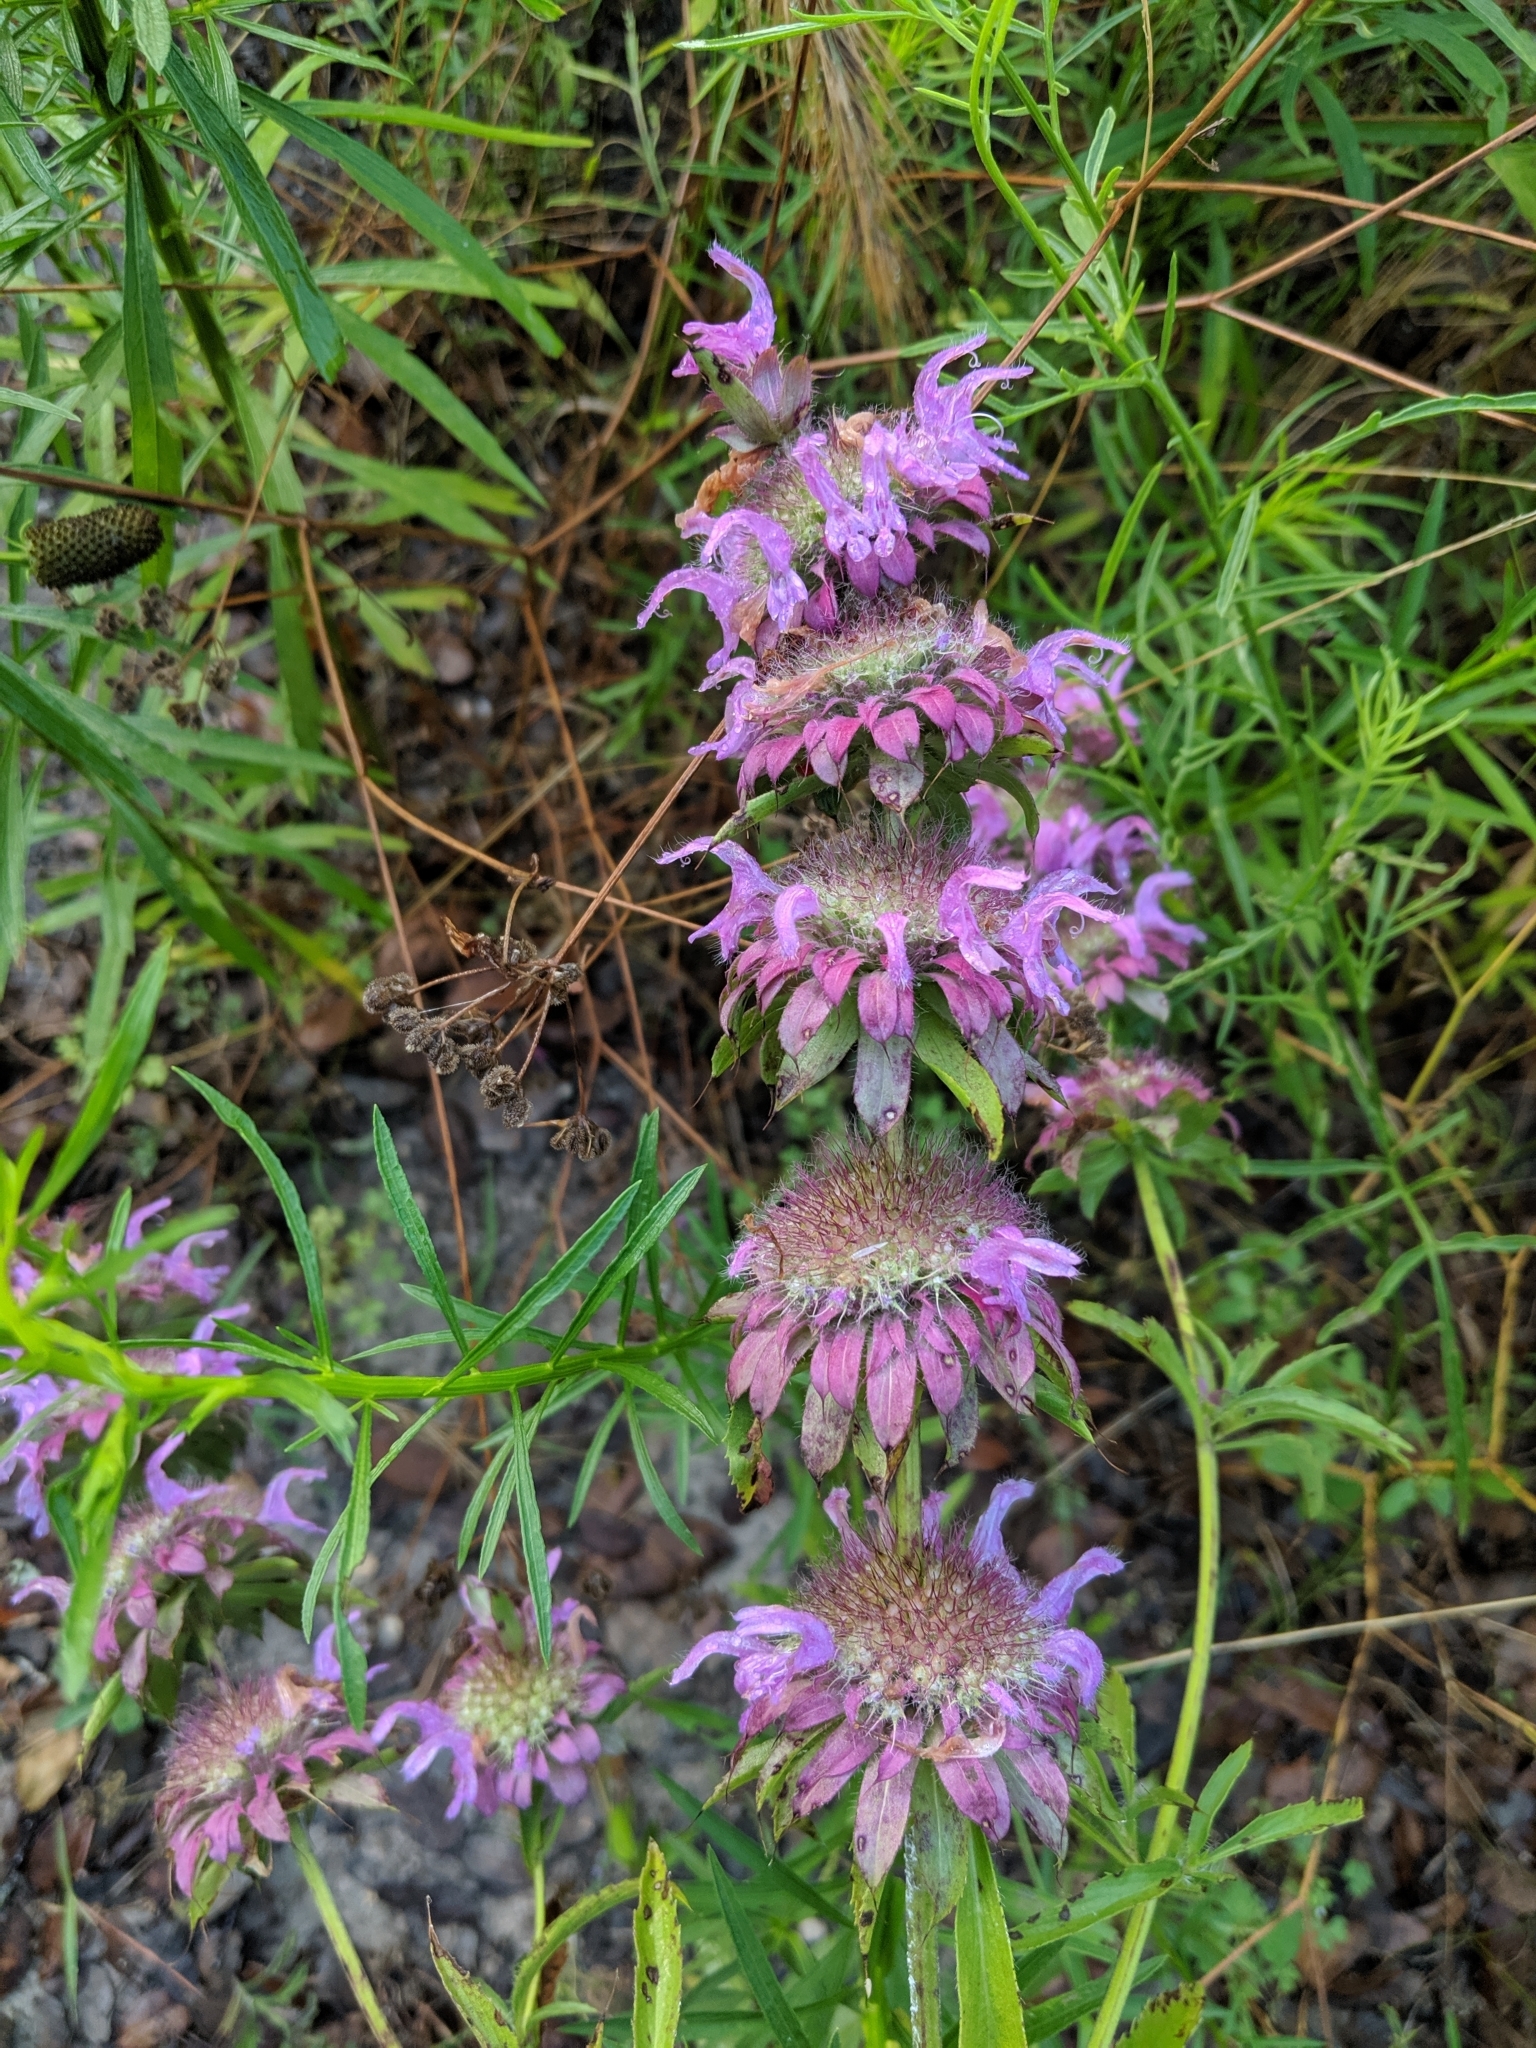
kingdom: Plantae
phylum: Tracheophyta
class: Magnoliopsida
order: Lamiales
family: Lamiaceae
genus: Monarda
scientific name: Monarda citriodora
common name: Lemon beebalm
